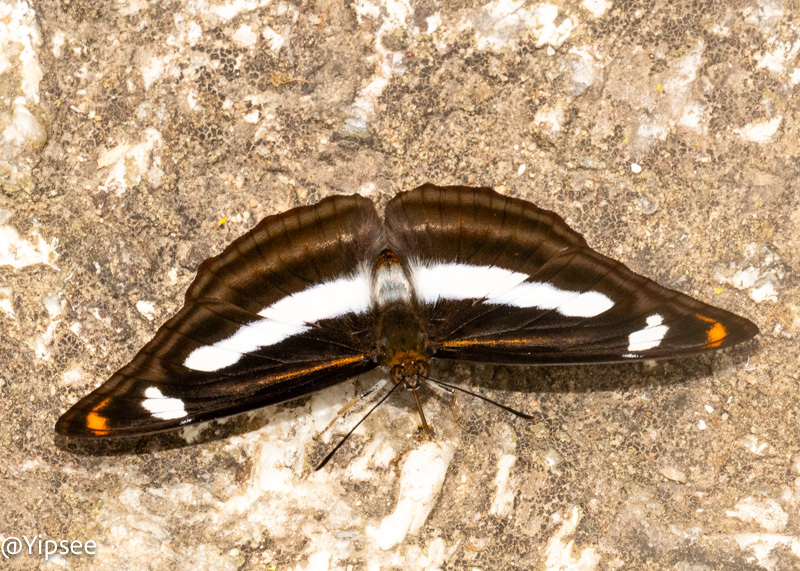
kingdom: Animalia
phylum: Arthropoda
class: Insecta
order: Lepidoptera
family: Nymphalidae
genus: Pantoporia
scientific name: Pantoporia cama
